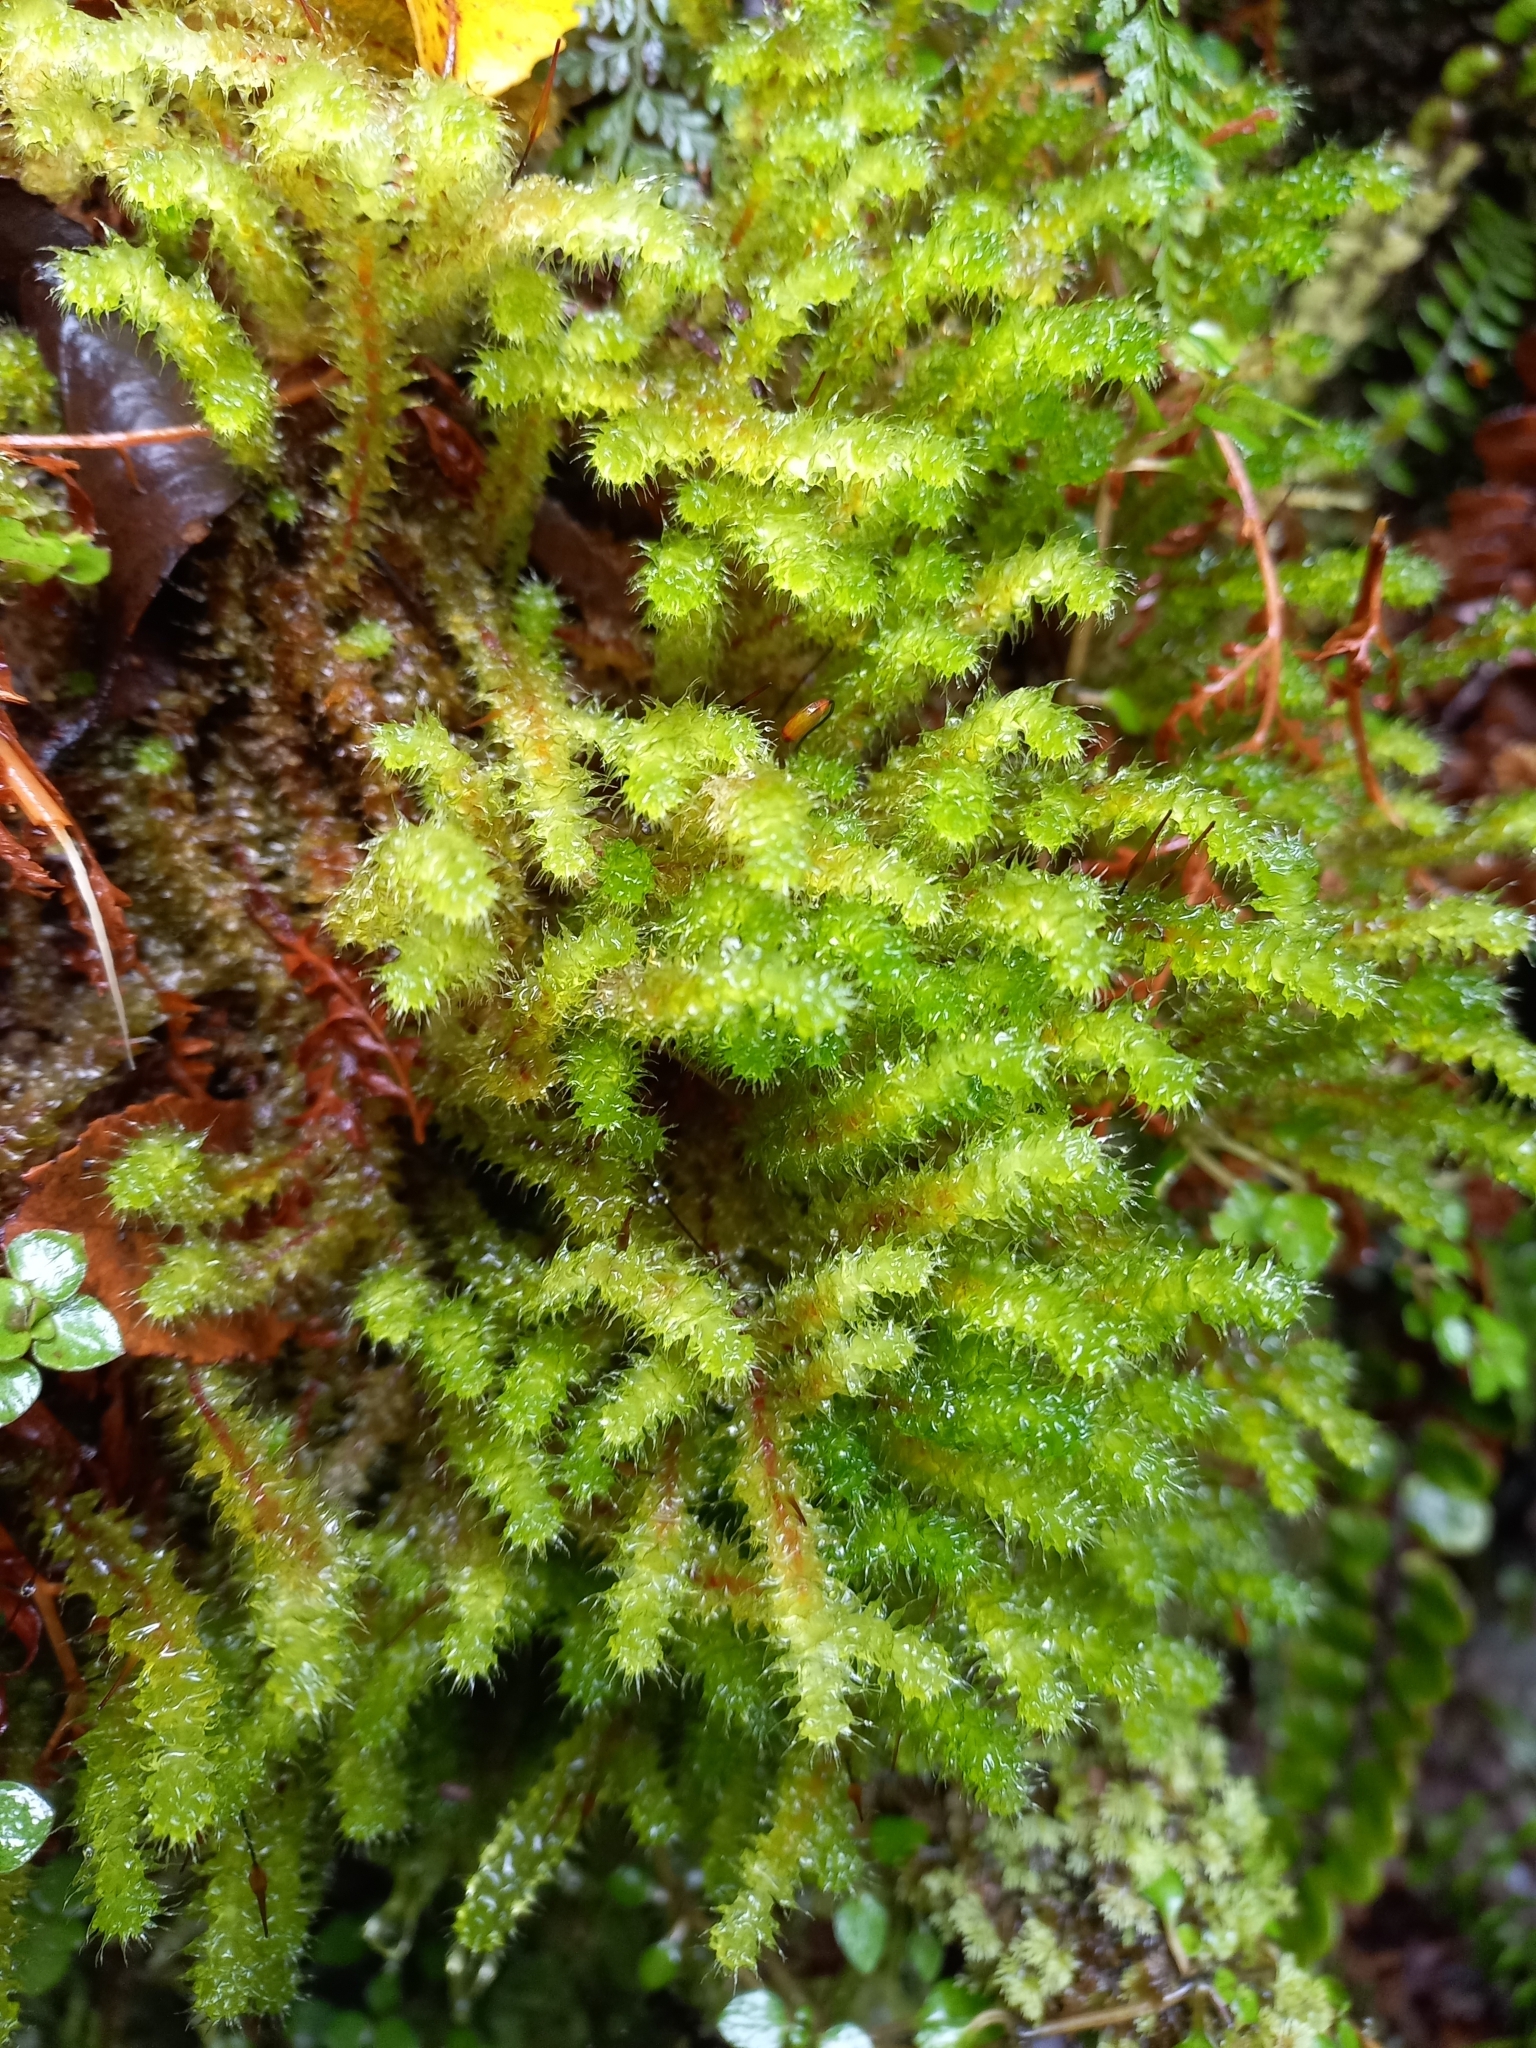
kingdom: Plantae
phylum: Bryophyta
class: Bryopsida
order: Ptychomniales
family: Ptychomniaceae
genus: Ptychomnion
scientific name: Ptychomnion aciculare
